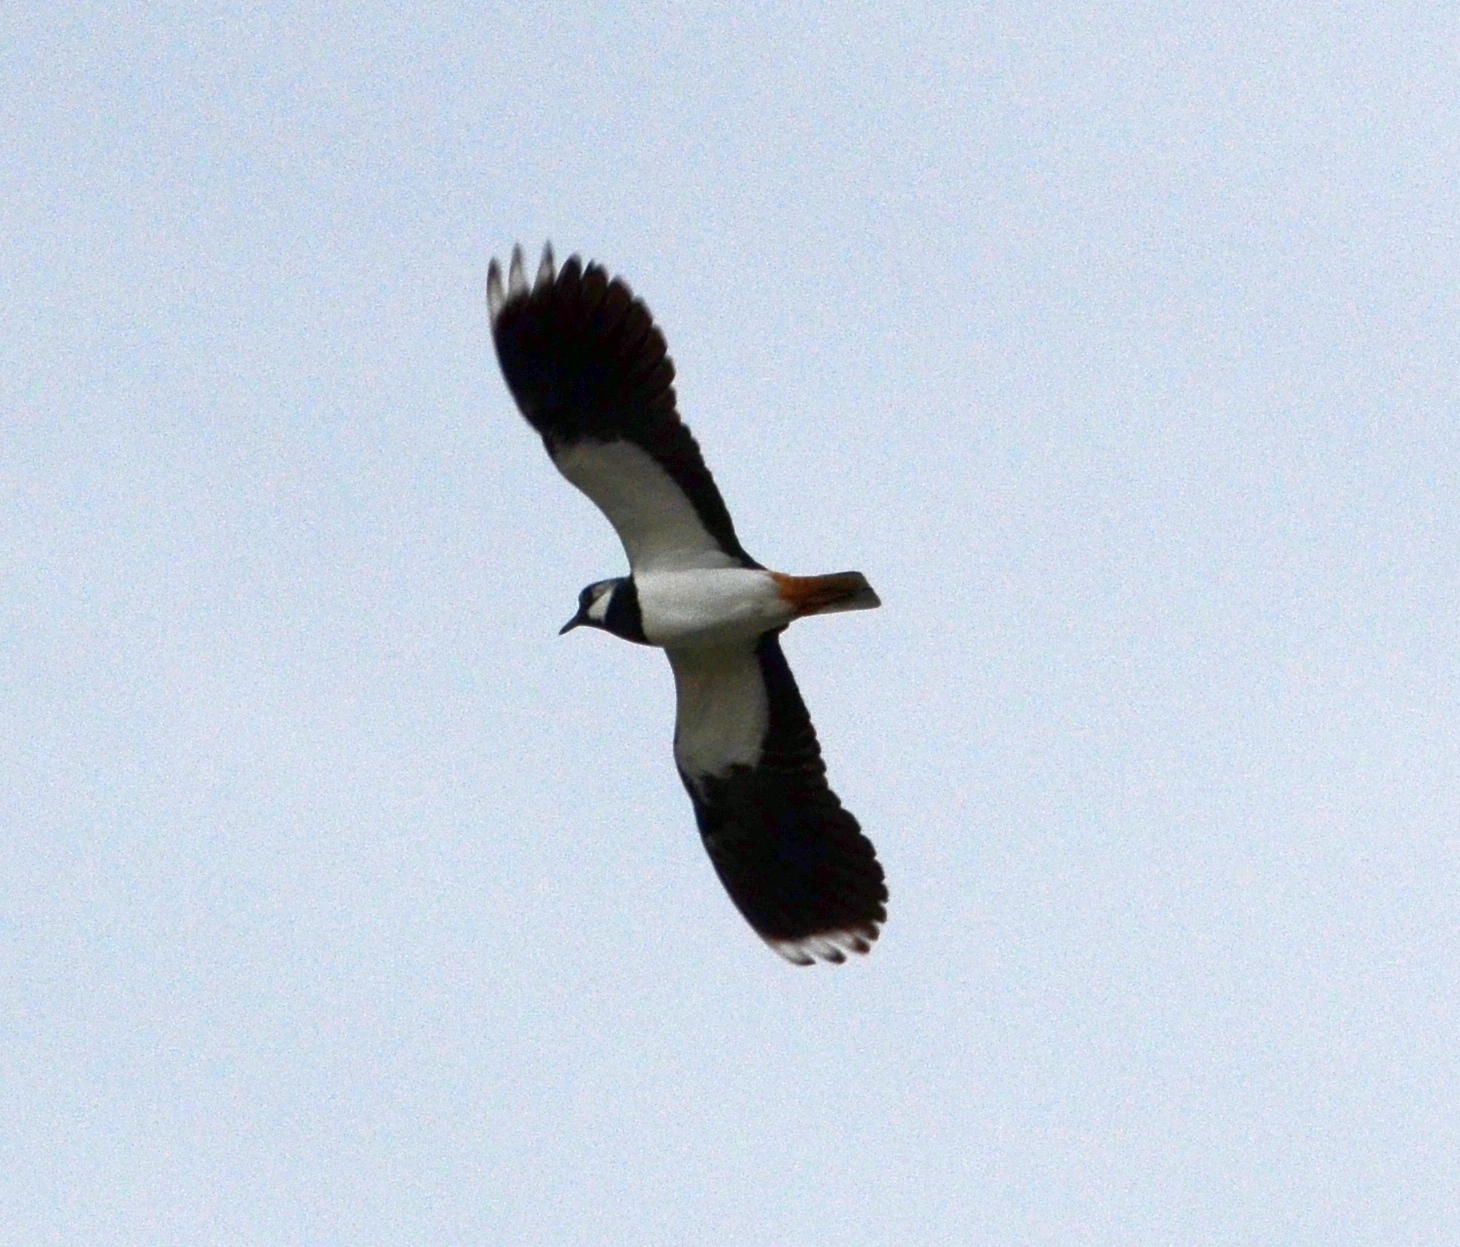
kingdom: Animalia
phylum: Chordata
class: Aves
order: Charadriiformes
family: Charadriidae
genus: Vanellus
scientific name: Vanellus vanellus
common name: Northern lapwing
